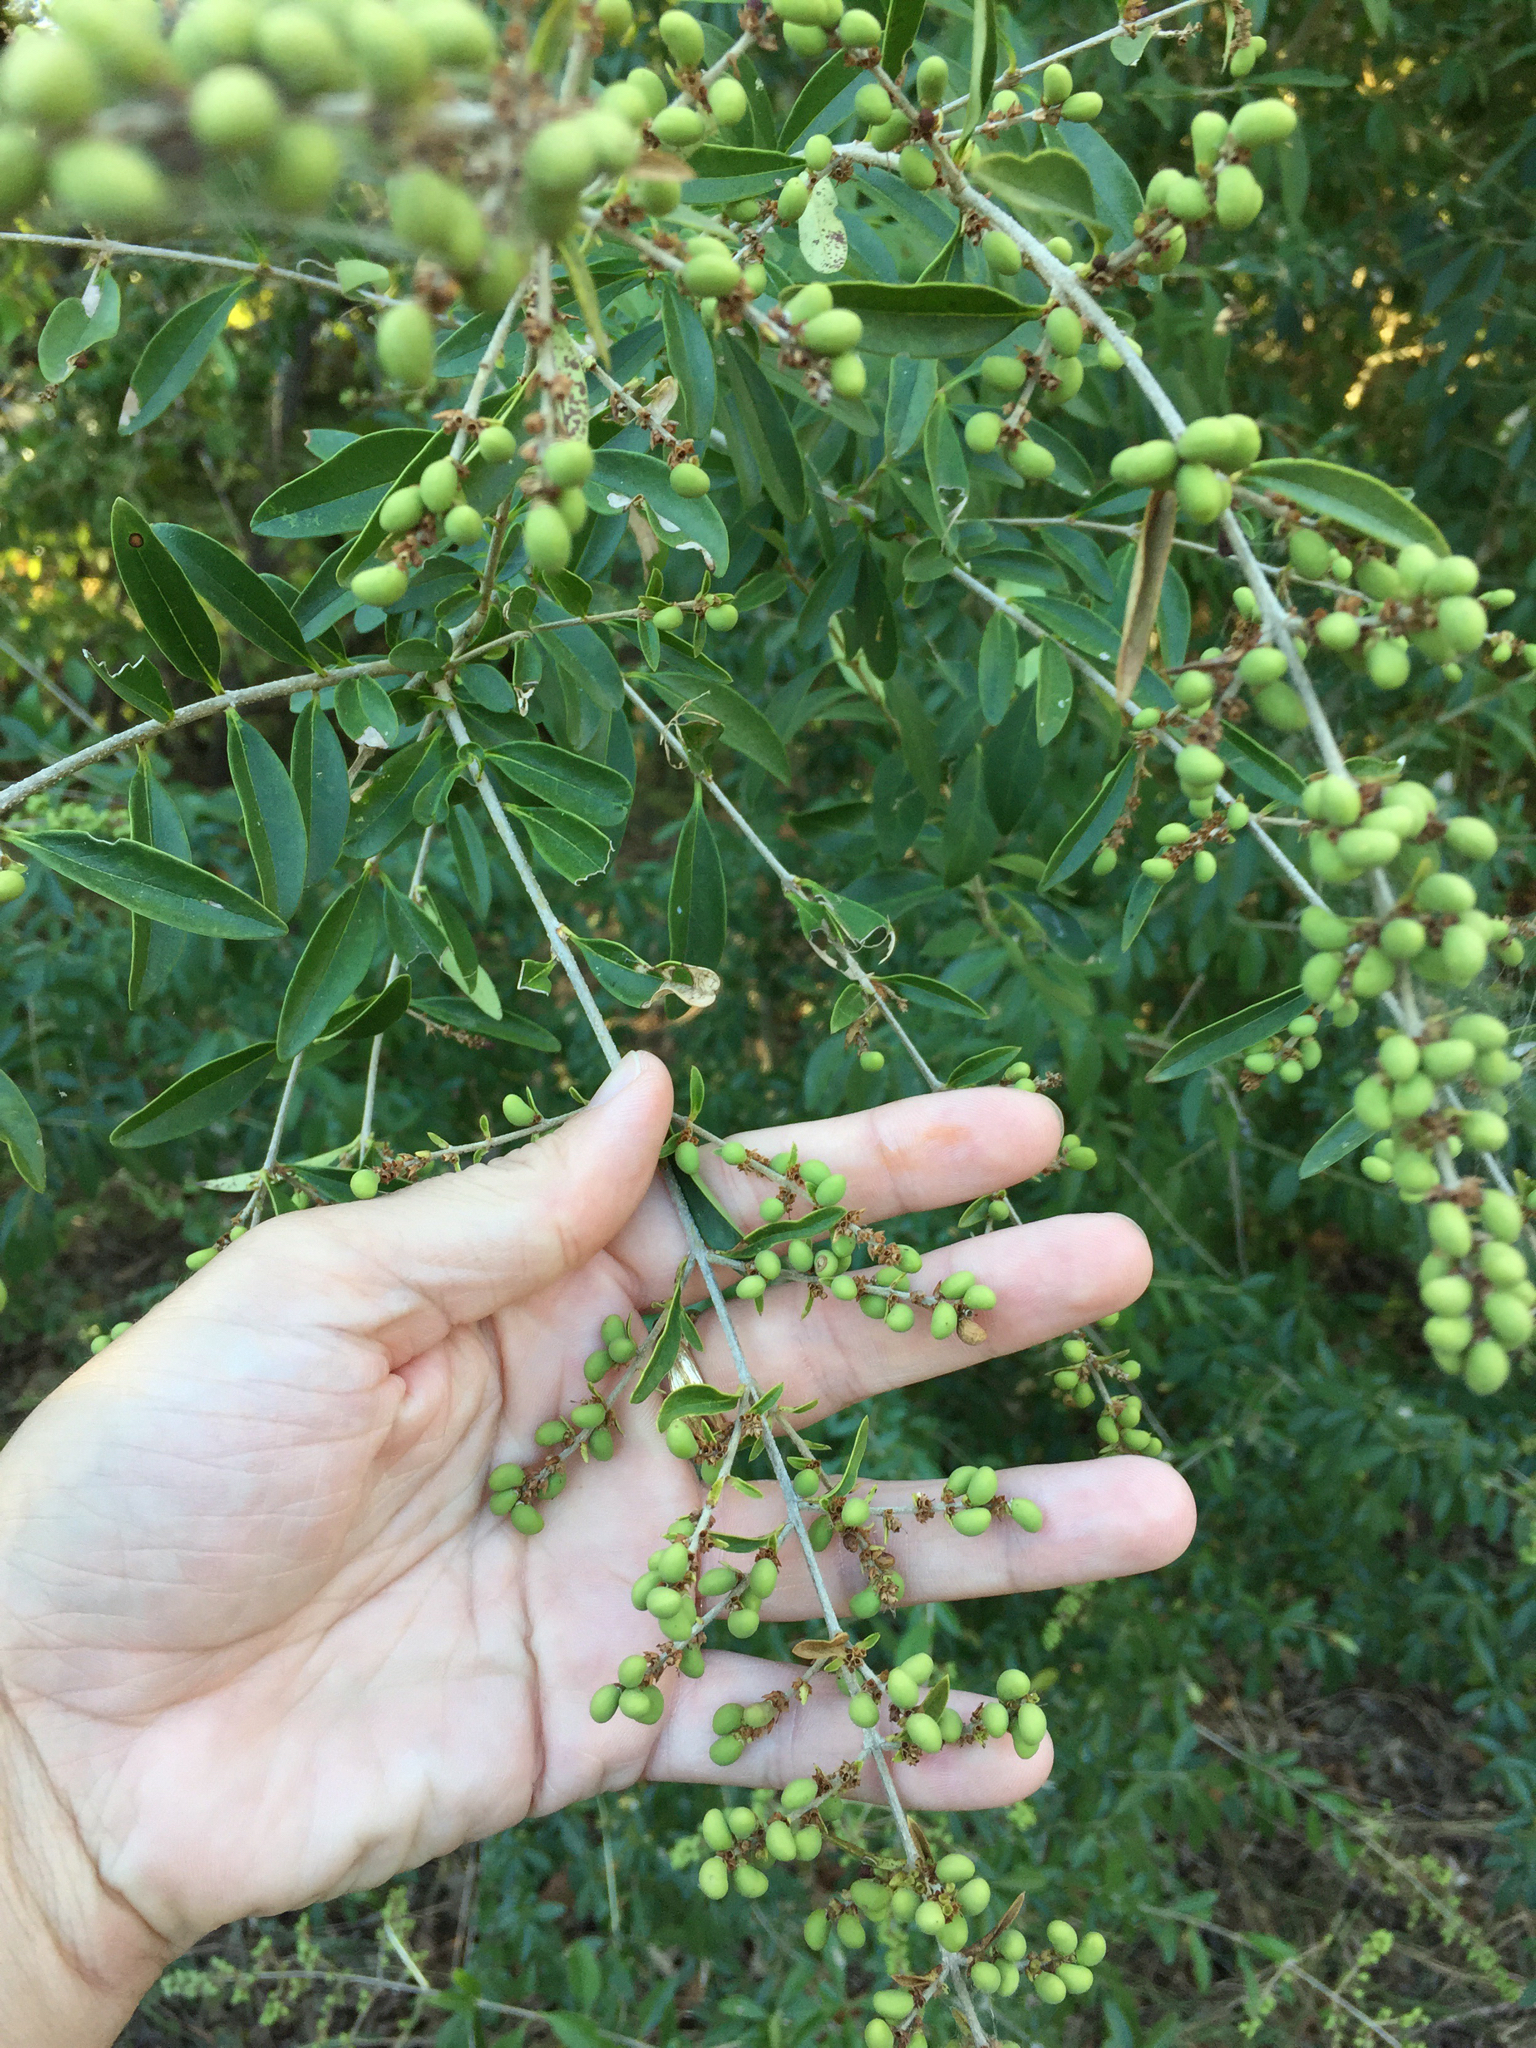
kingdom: Plantae
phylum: Tracheophyta
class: Magnoliopsida
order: Lamiales
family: Oleaceae
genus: Ligustrum
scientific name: Ligustrum quihoui
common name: Waxyleaf privet
